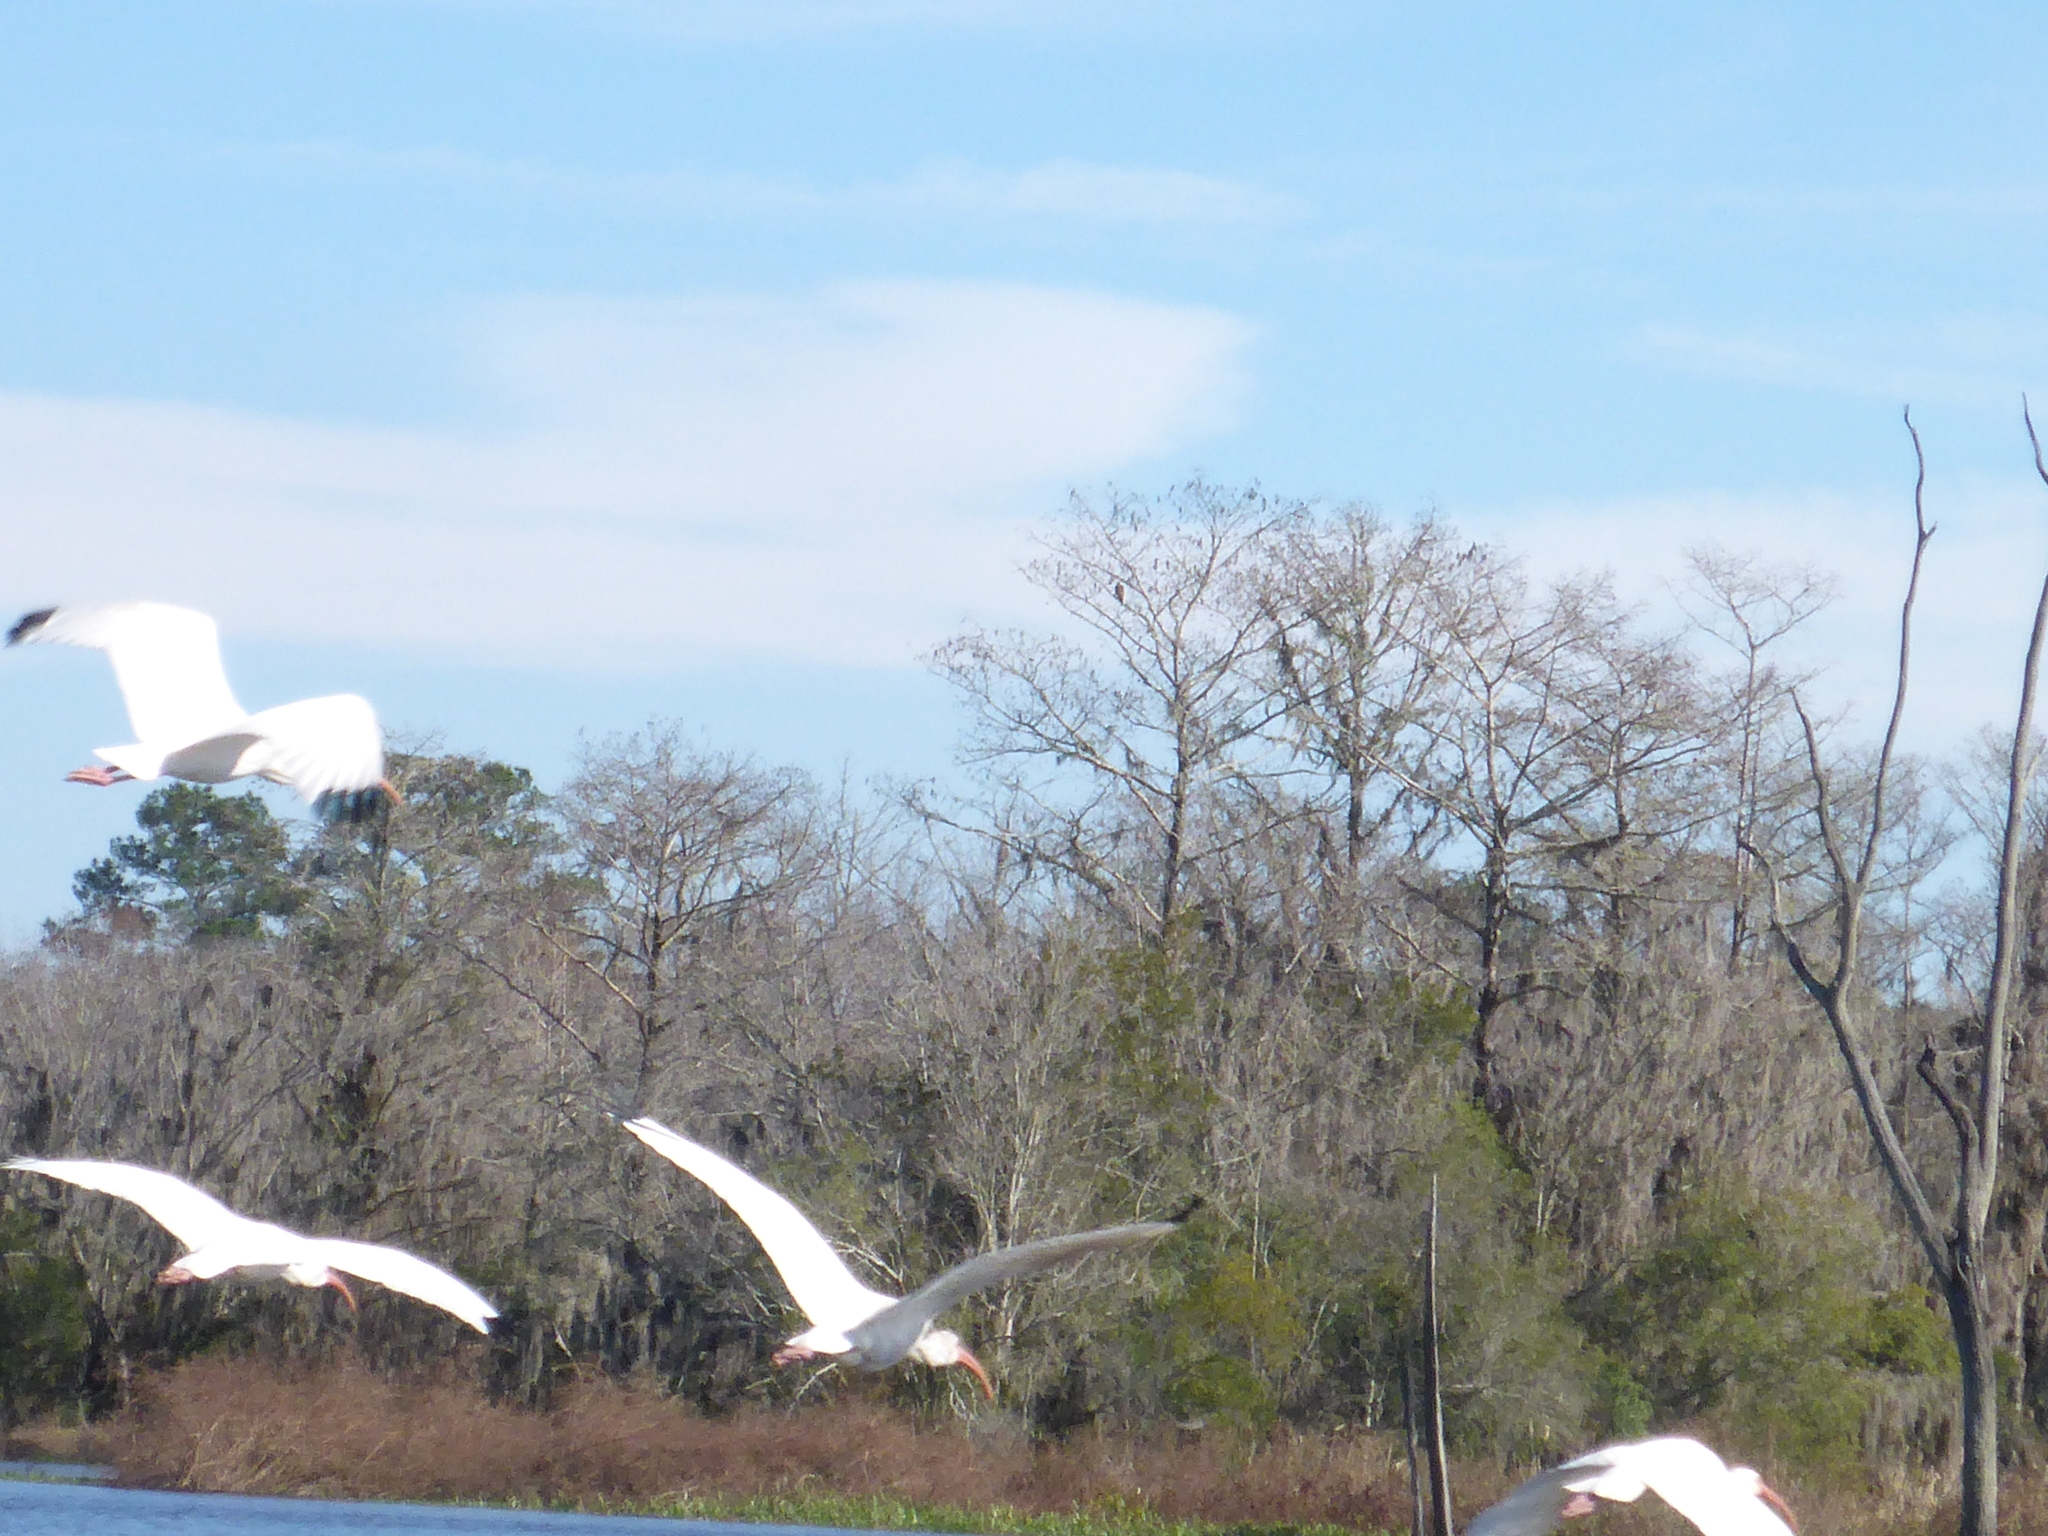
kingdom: Animalia
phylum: Chordata
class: Aves
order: Pelecaniformes
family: Threskiornithidae
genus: Eudocimus
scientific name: Eudocimus albus
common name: White ibis
